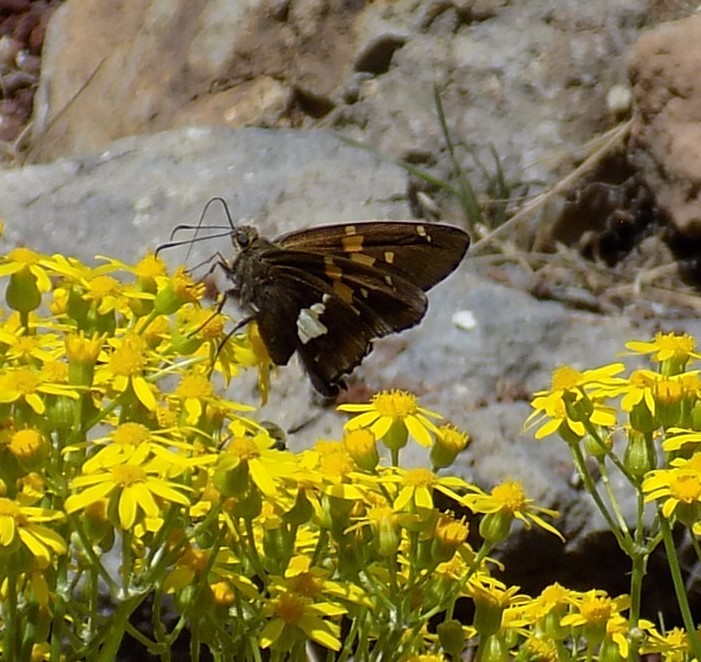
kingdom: Animalia
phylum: Arthropoda
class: Insecta
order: Lepidoptera
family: Hesperiidae
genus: Epargyreus
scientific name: Epargyreus clarus
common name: Silver-spotted skipper
